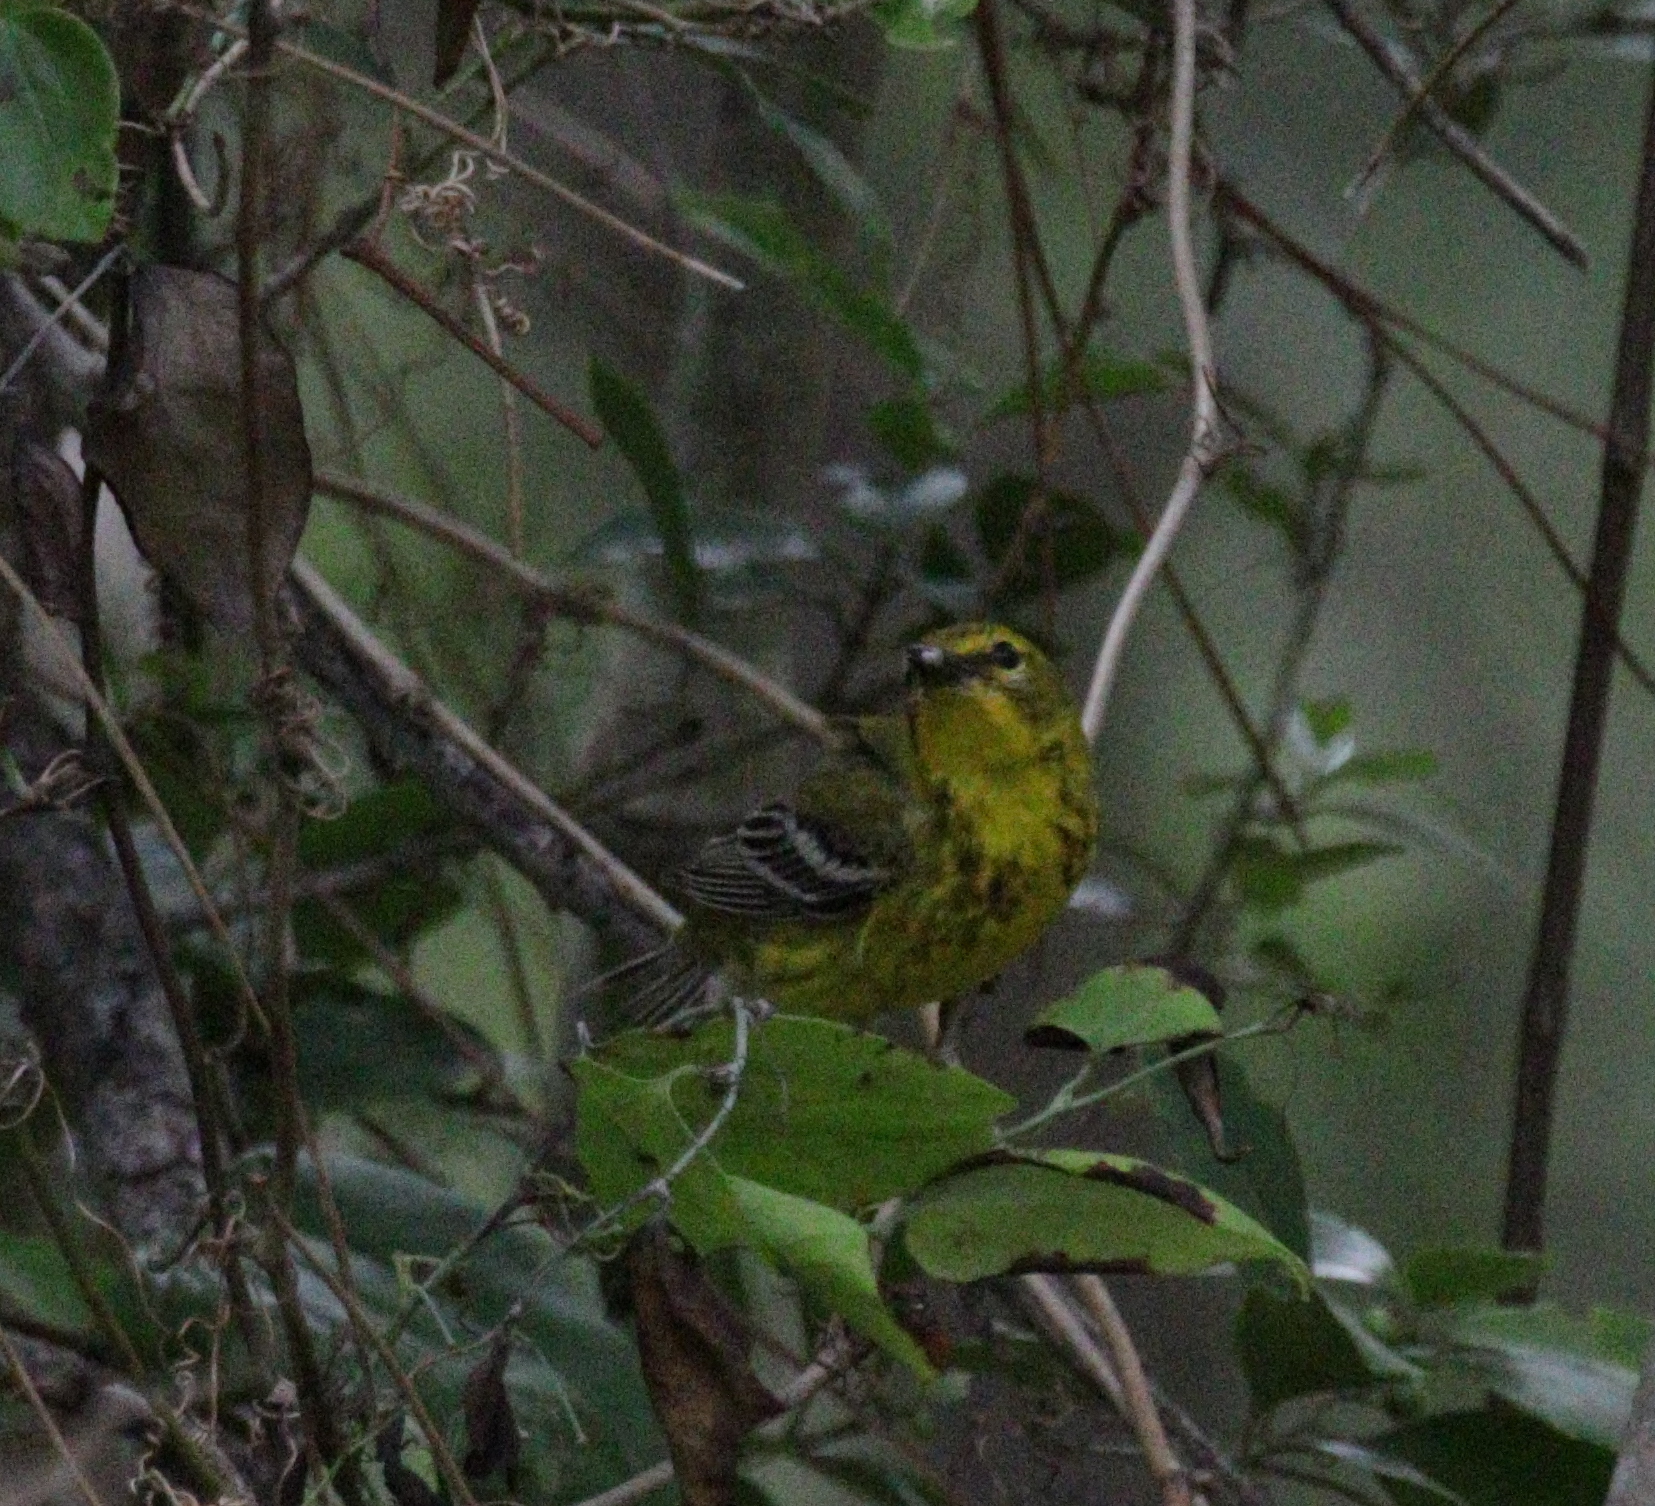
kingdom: Animalia
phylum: Chordata
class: Aves
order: Passeriformes
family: Parulidae
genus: Setophaga
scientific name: Setophaga pinus
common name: Pine warbler
